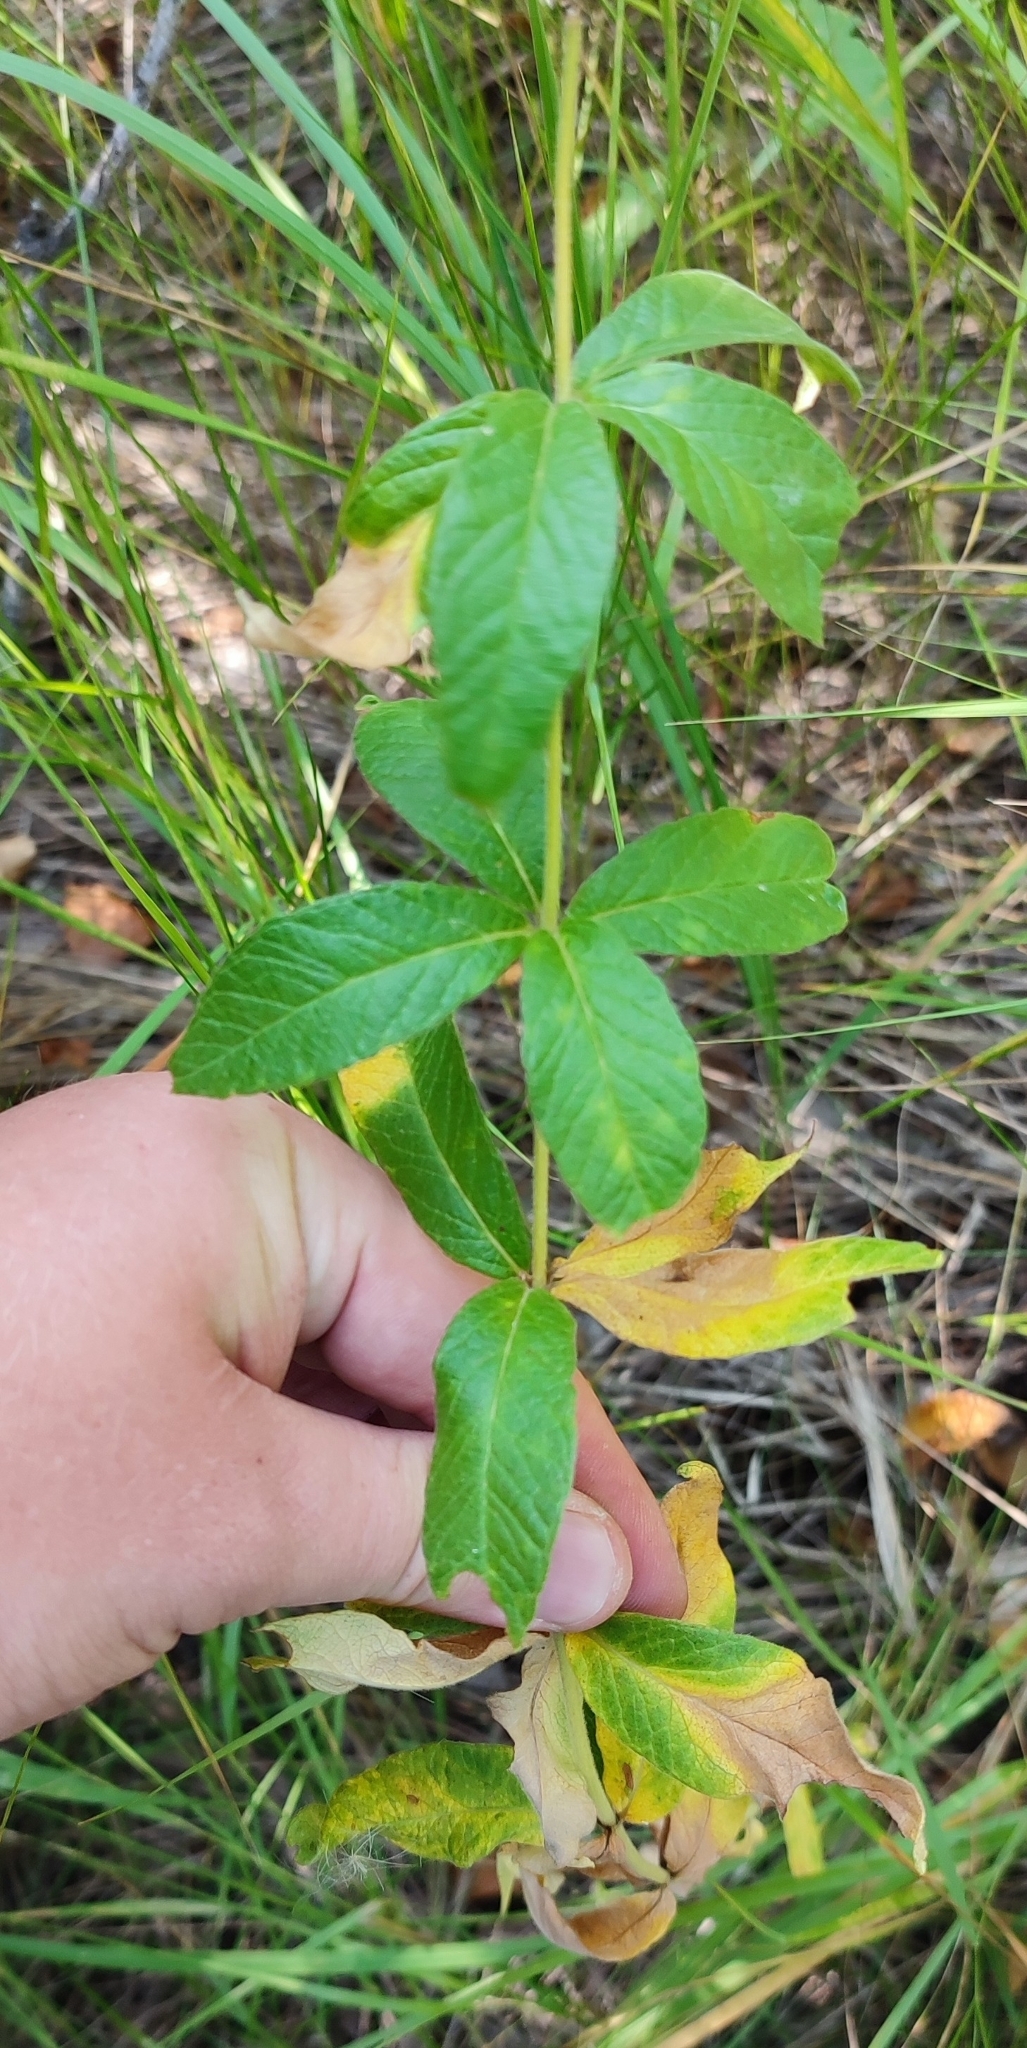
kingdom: Plantae
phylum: Tracheophyta
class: Magnoliopsida
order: Ericales
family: Primulaceae
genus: Lysimachia
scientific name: Lysimachia vulgaris
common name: Yellow loosestrife
